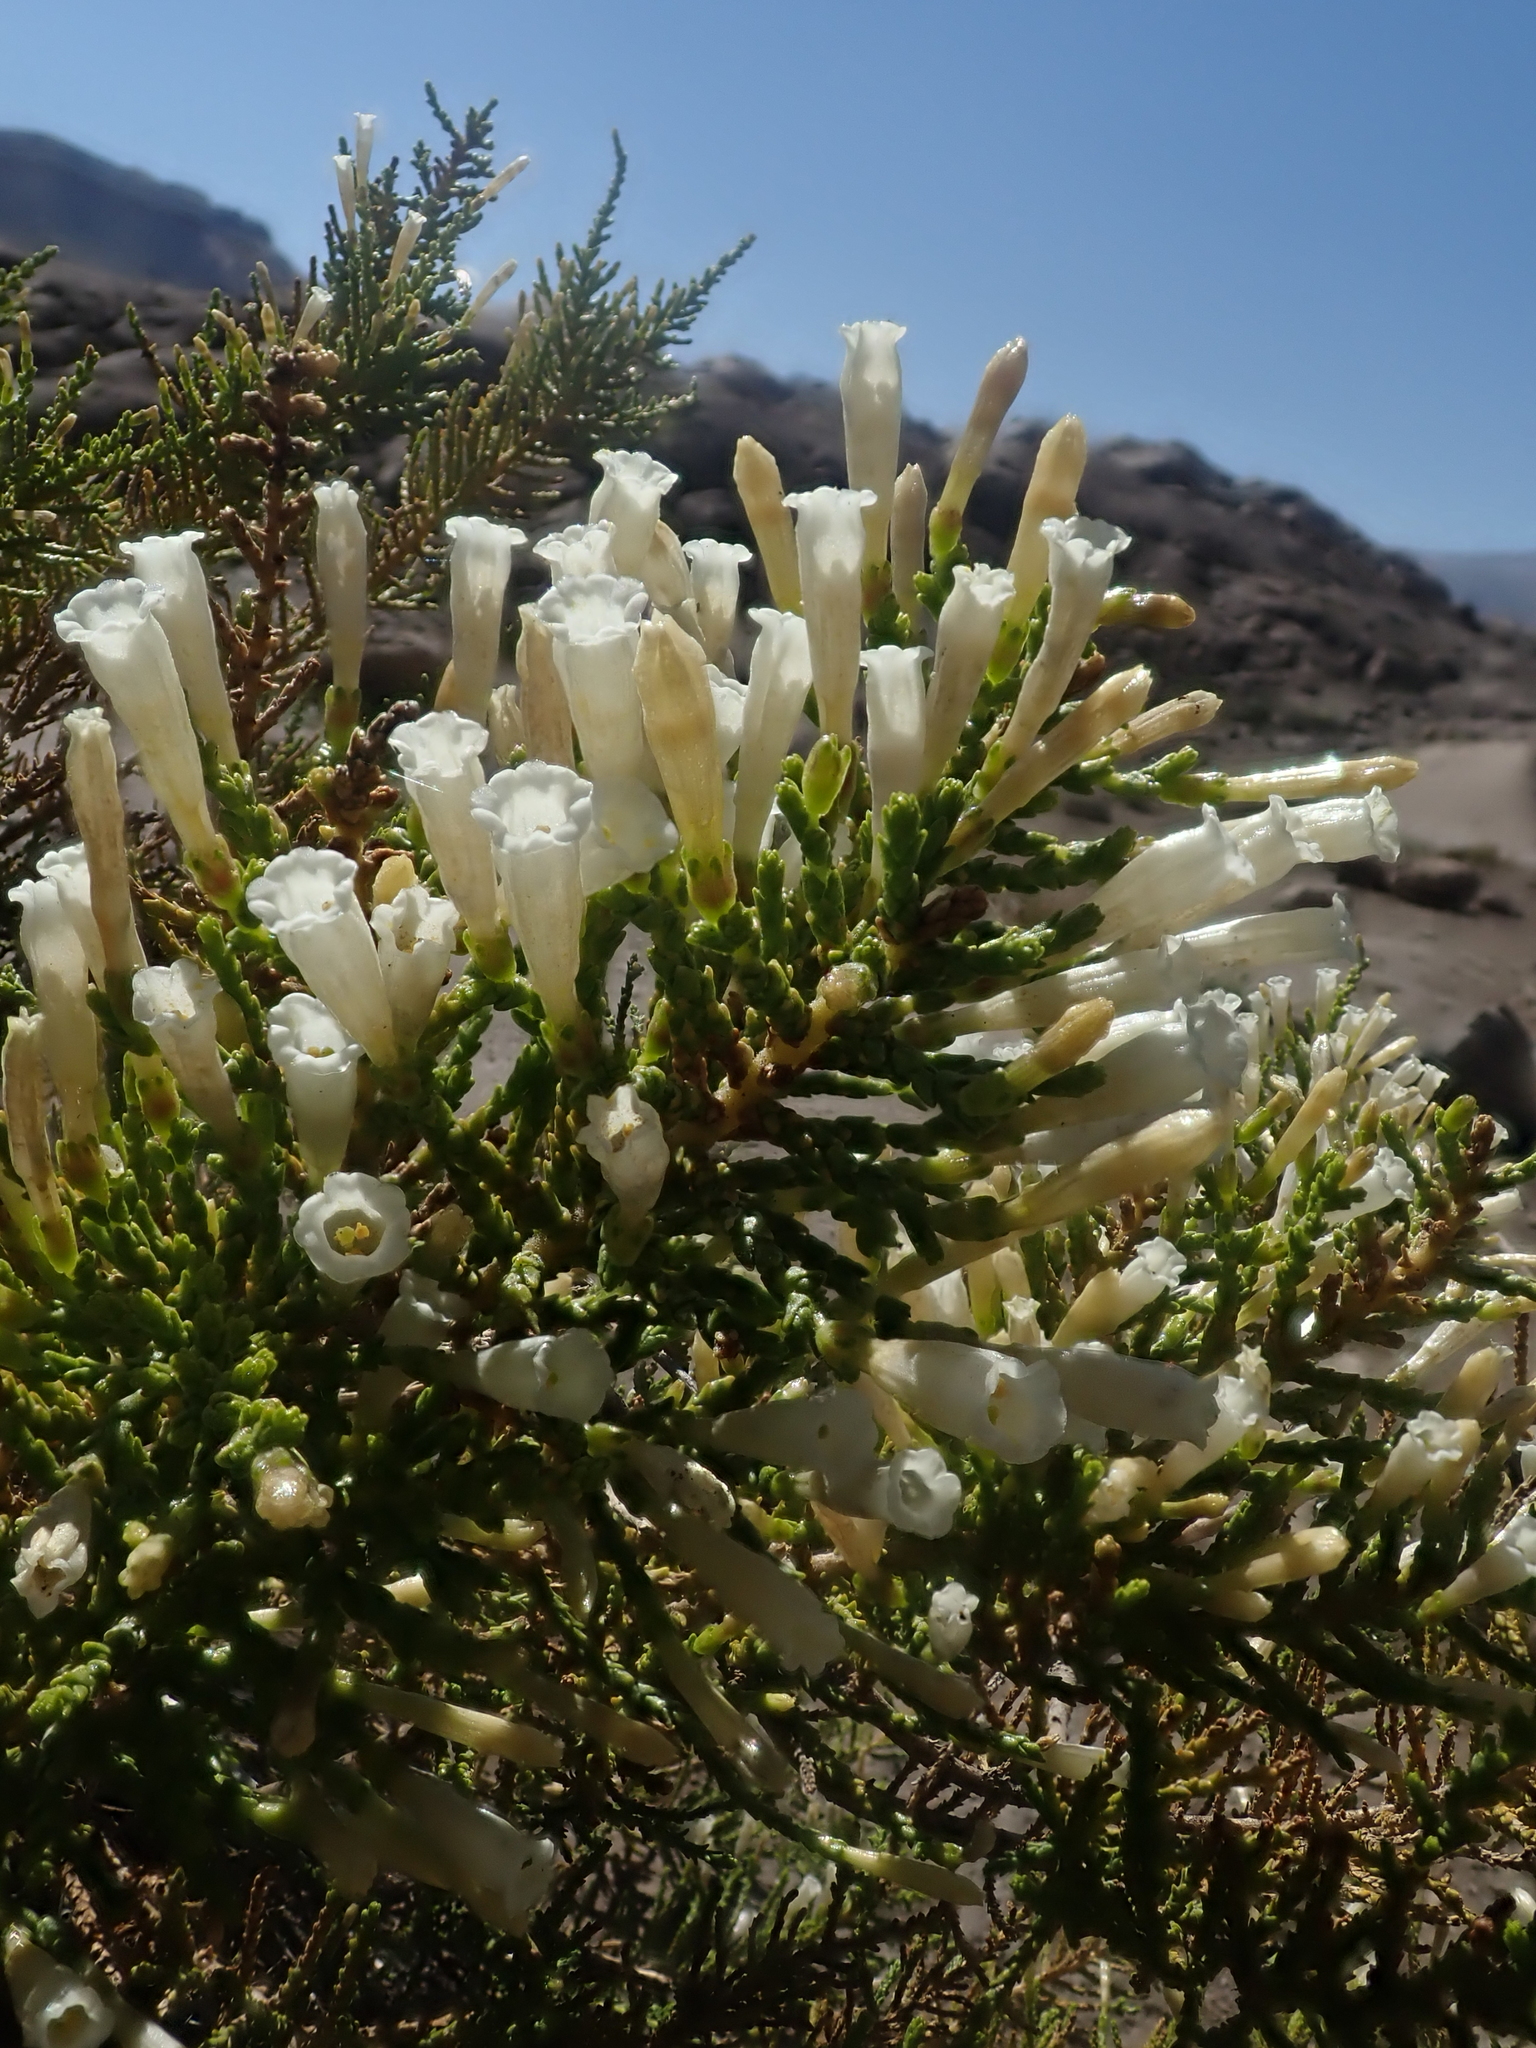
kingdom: Plantae
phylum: Tracheophyta
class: Magnoliopsida
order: Solanales
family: Solanaceae
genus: Fabiana
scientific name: Fabiana imbricata
